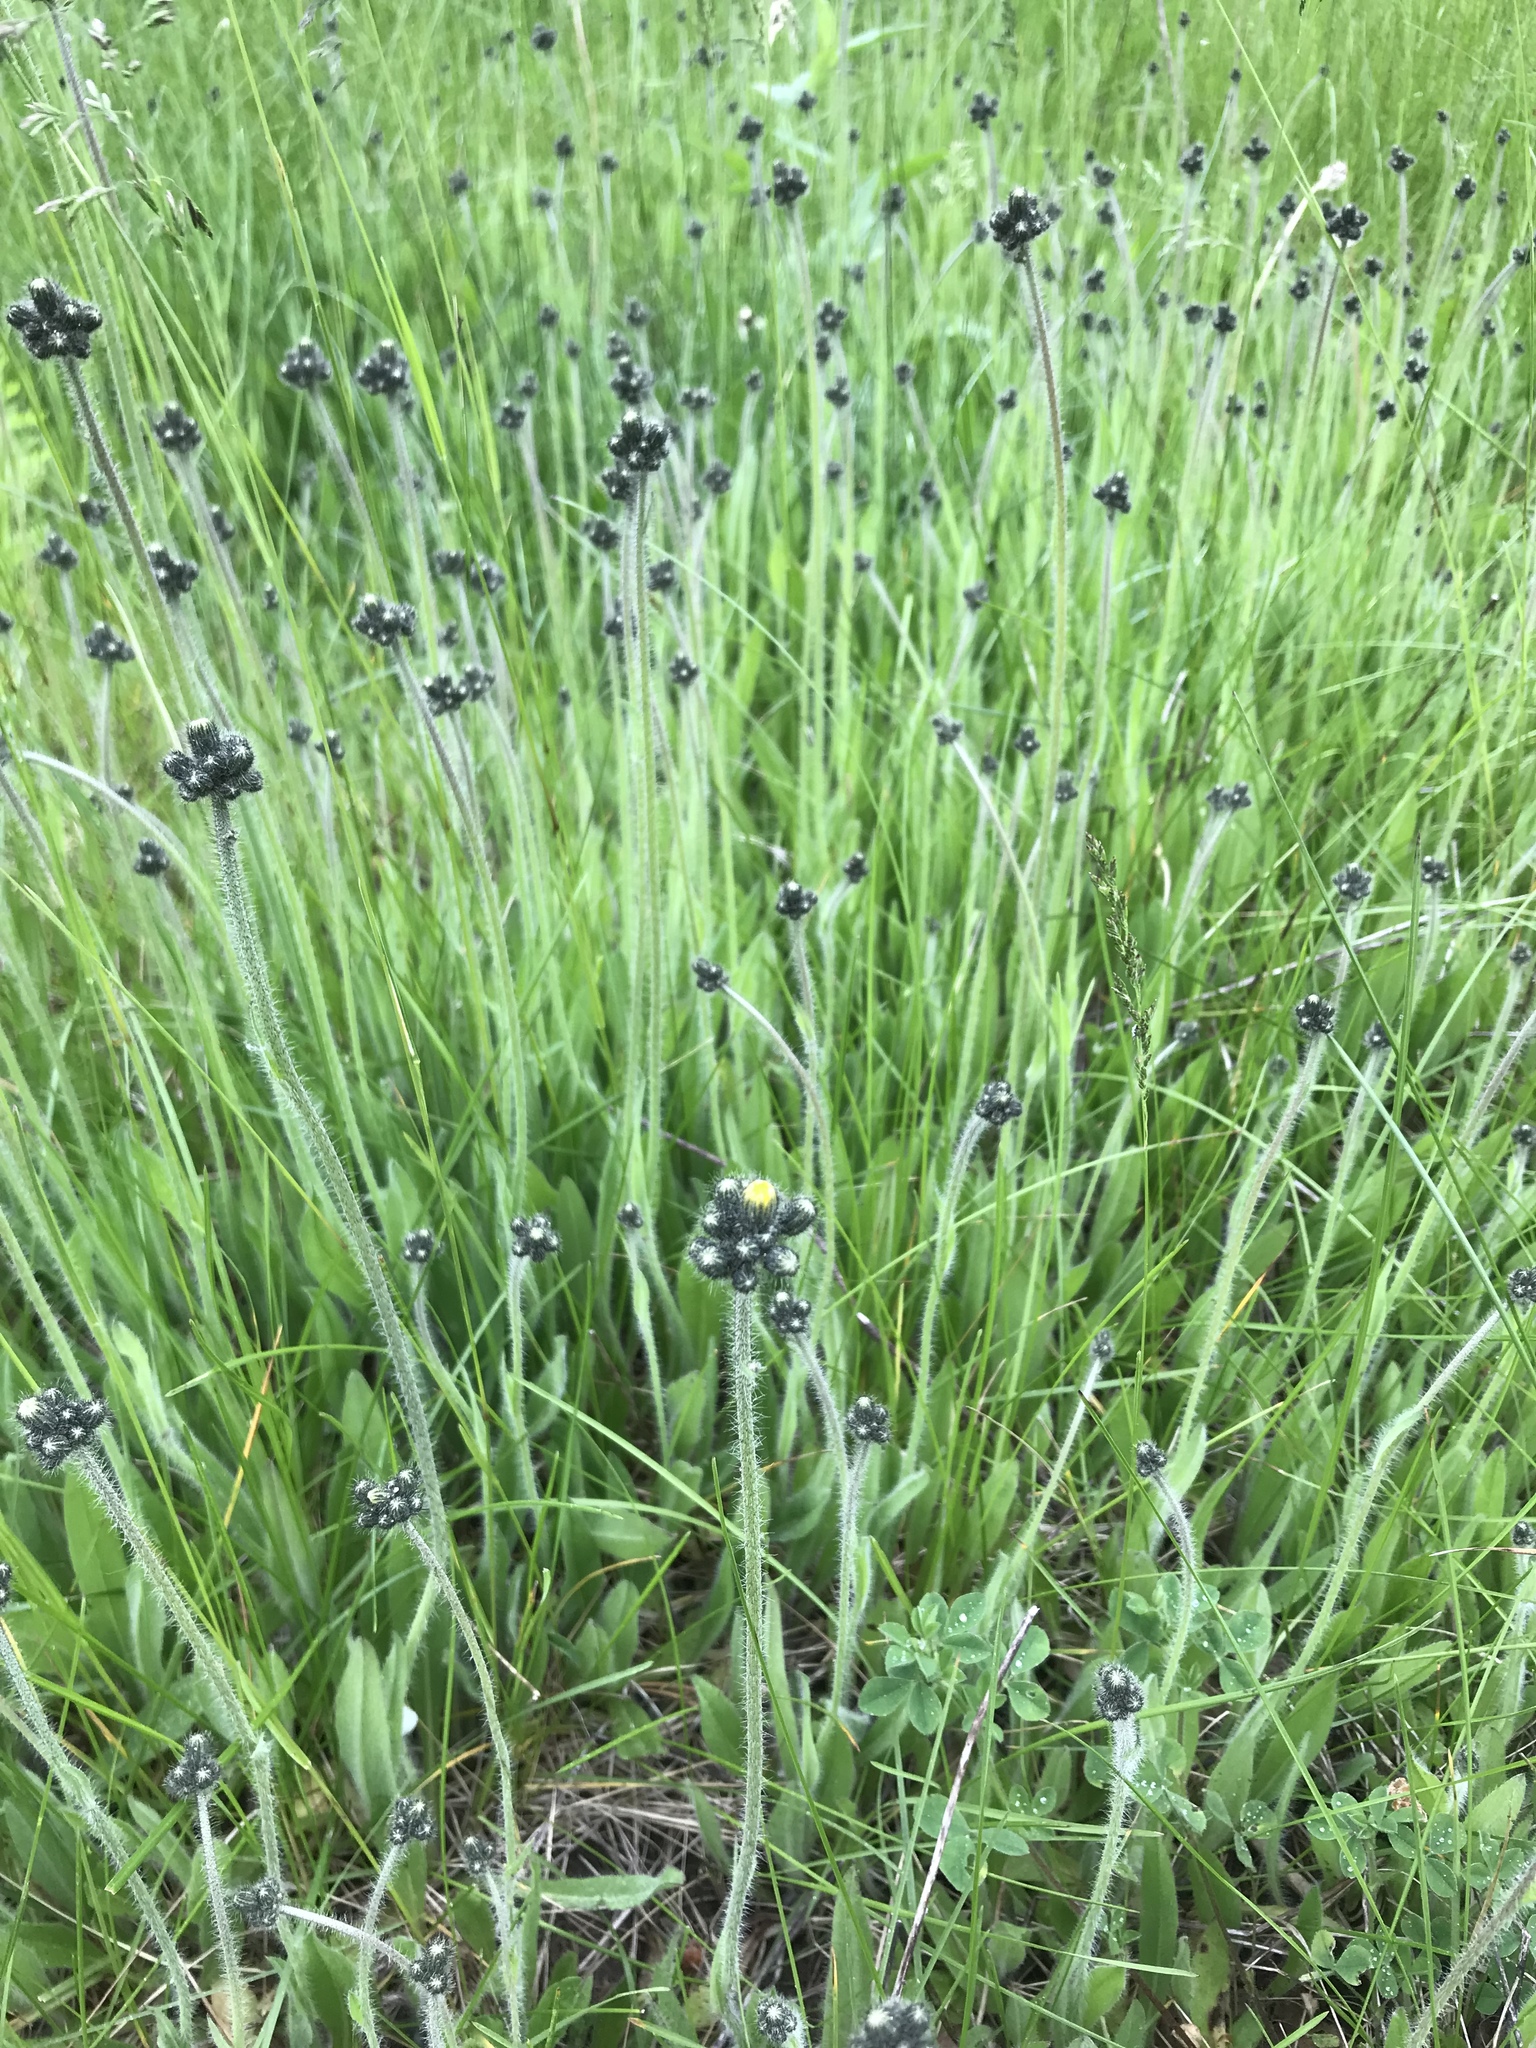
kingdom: Plantae
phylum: Tracheophyta
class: Magnoliopsida
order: Asterales
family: Asteraceae
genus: Pilosella
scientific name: Pilosella caespitosa
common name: Yellow fox-and-cubs
